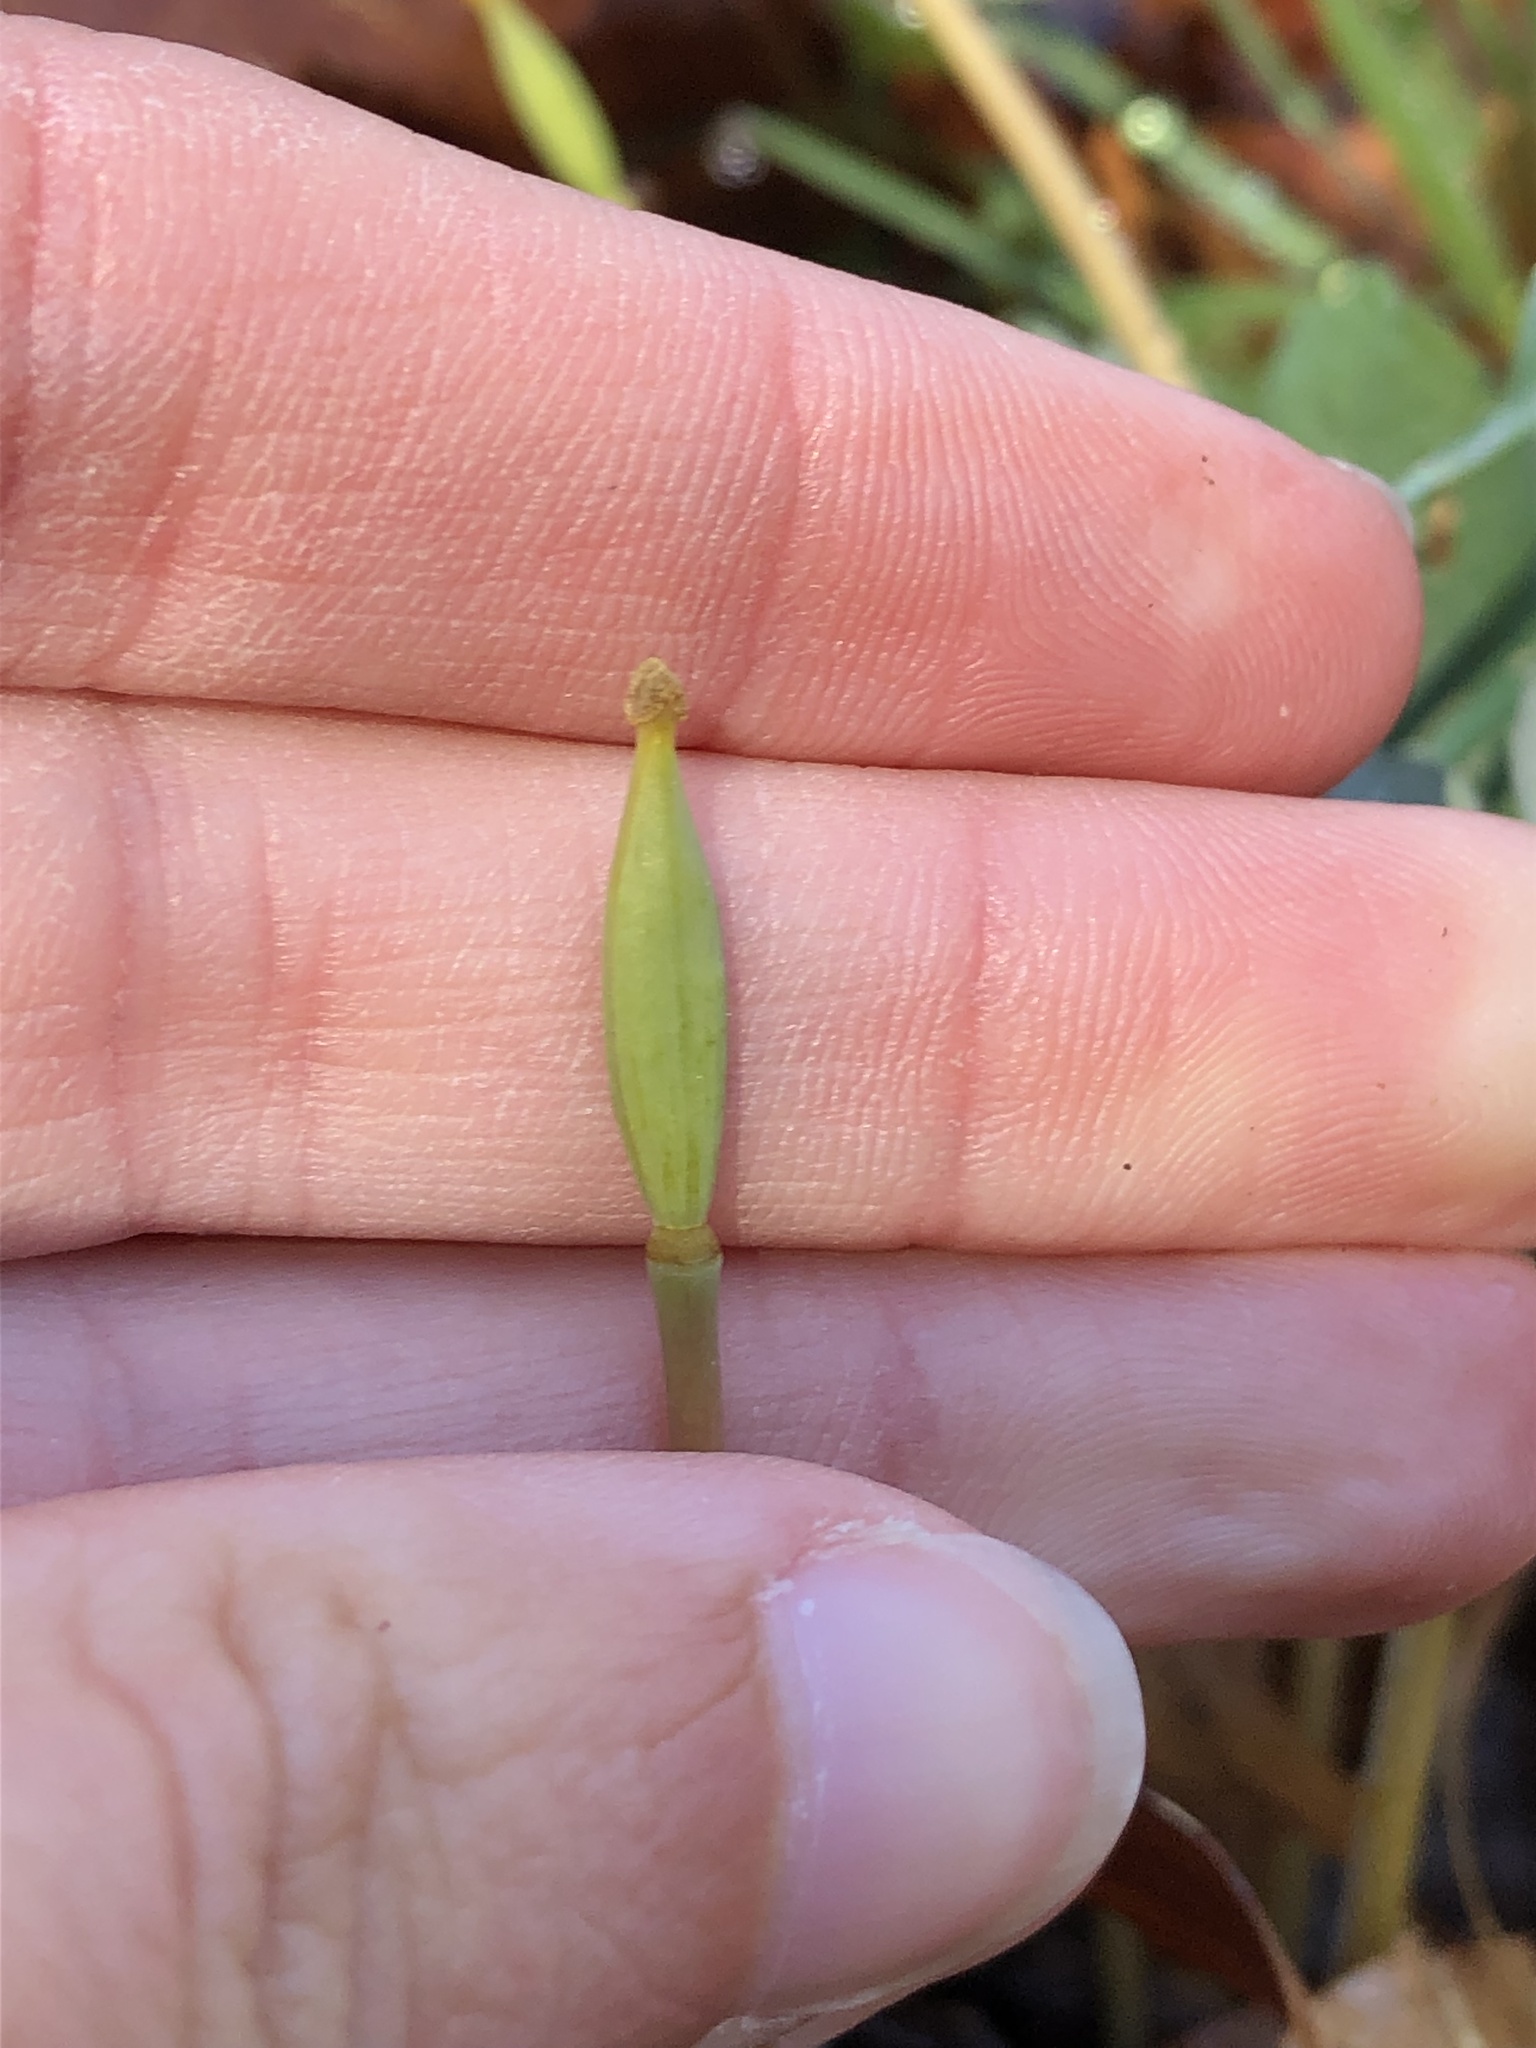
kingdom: Plantae
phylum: Tracheophyta
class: Magnoliopsida
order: Ranunculales
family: Papaveraceae
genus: Sanguinaria
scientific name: Sanguinaria canadensis
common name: Bloodroot
